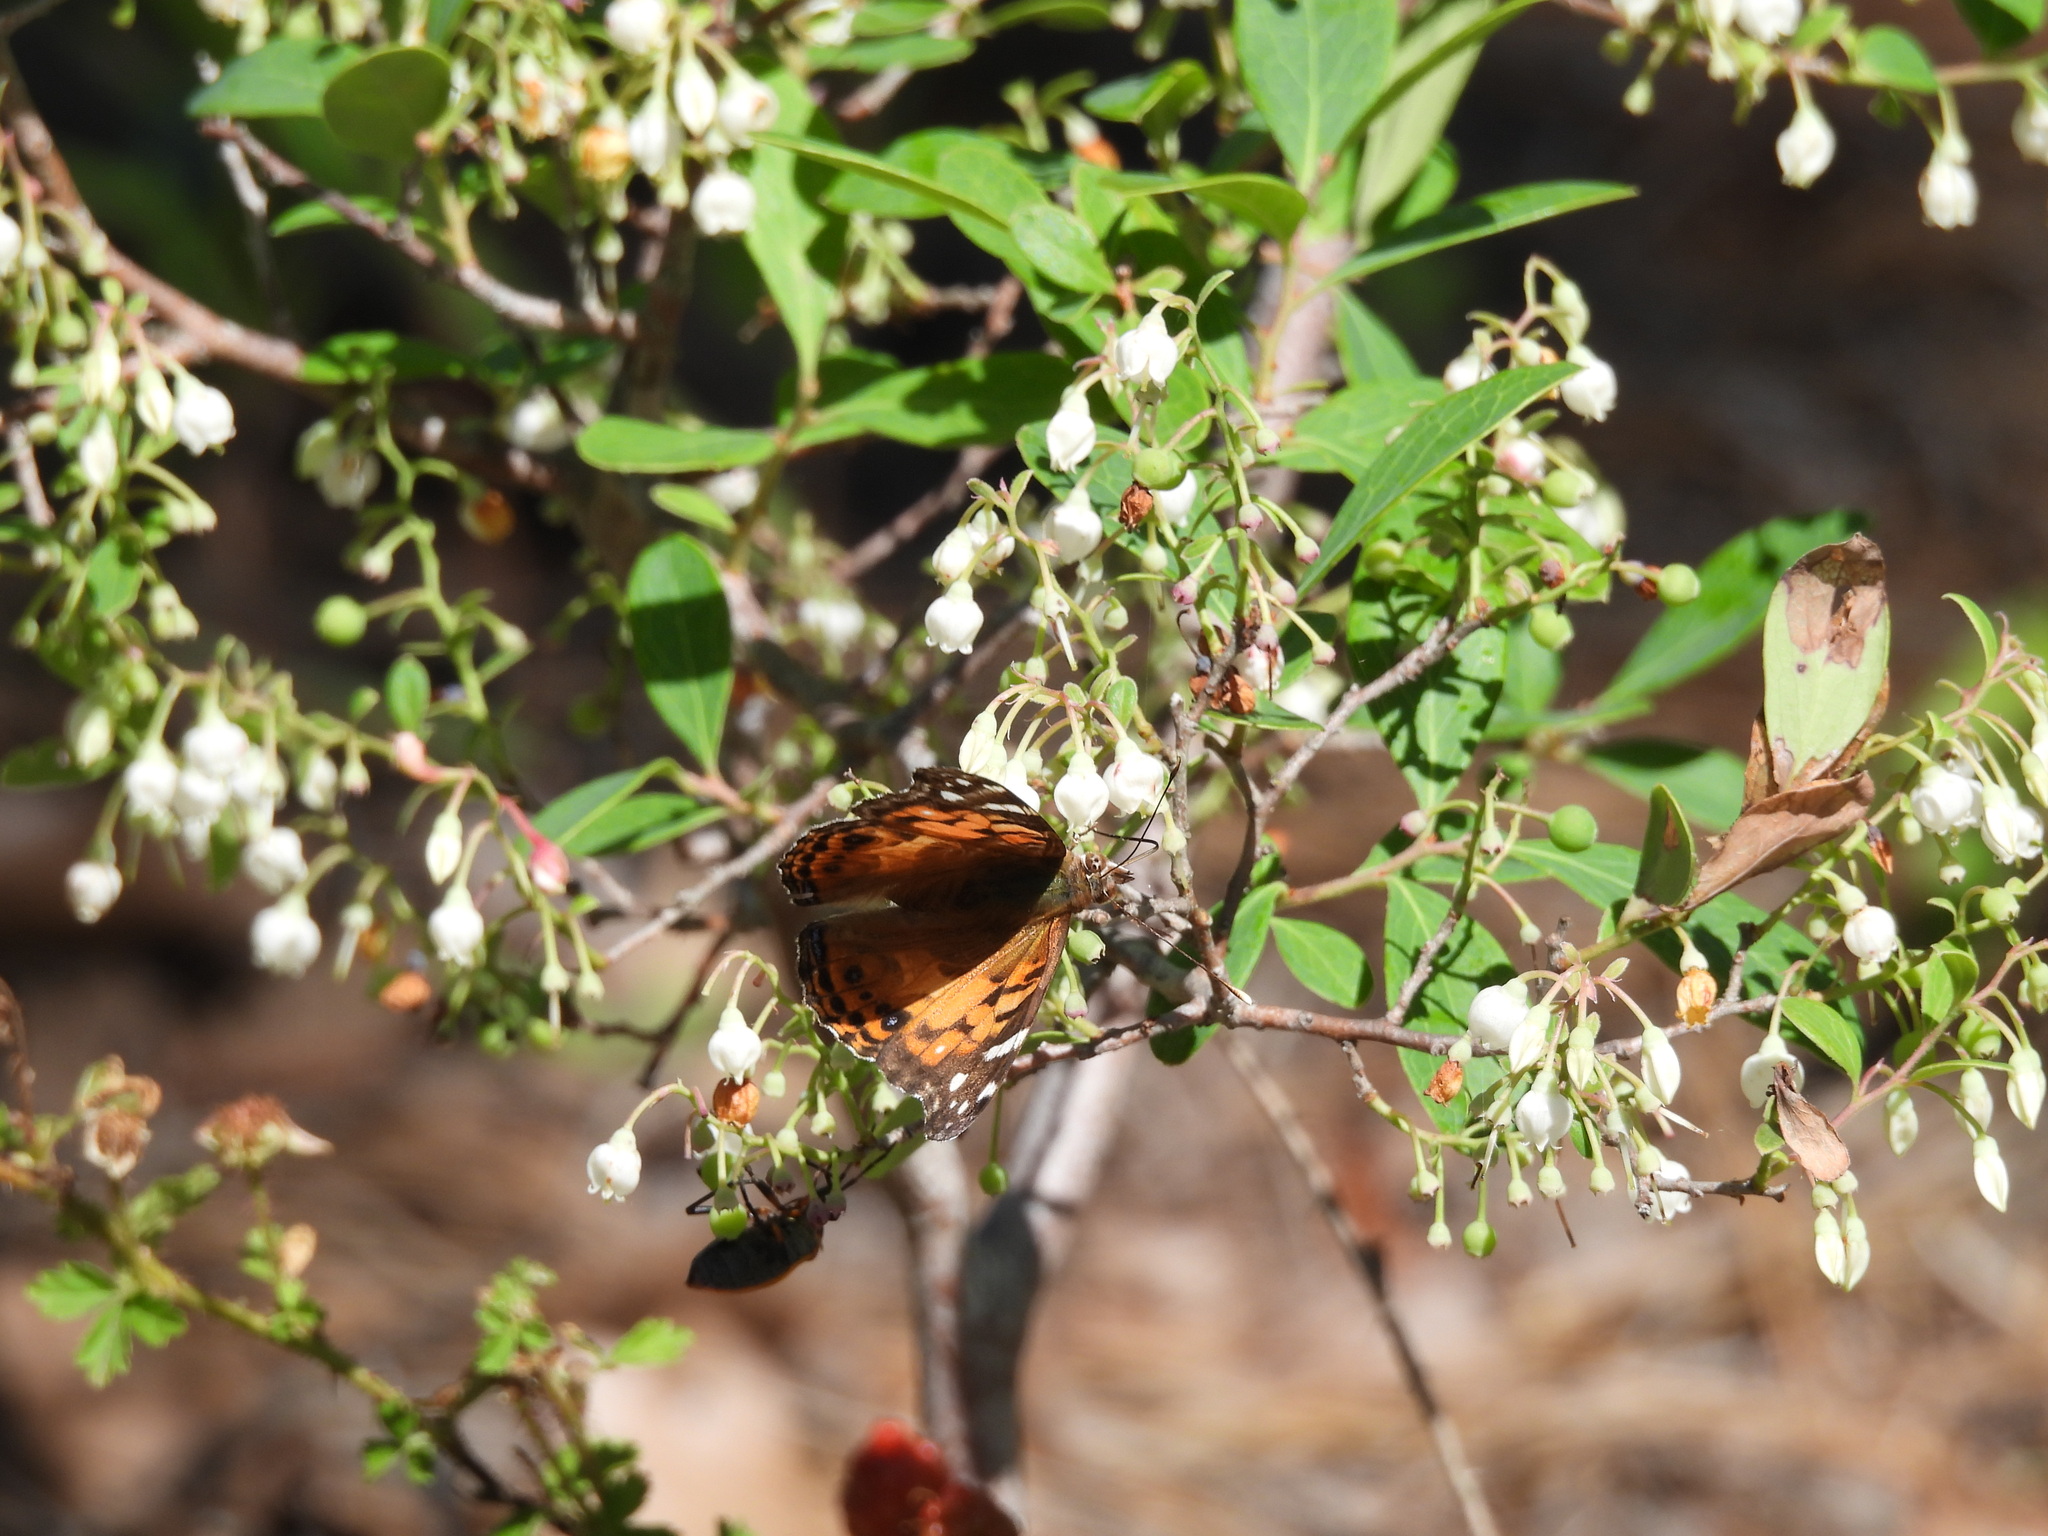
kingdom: Animalia
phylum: Arthropoda
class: Insecta
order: Lepidoptera
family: Nymphalidae
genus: Vanessa
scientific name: Vanessa virginiensis
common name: American lady
